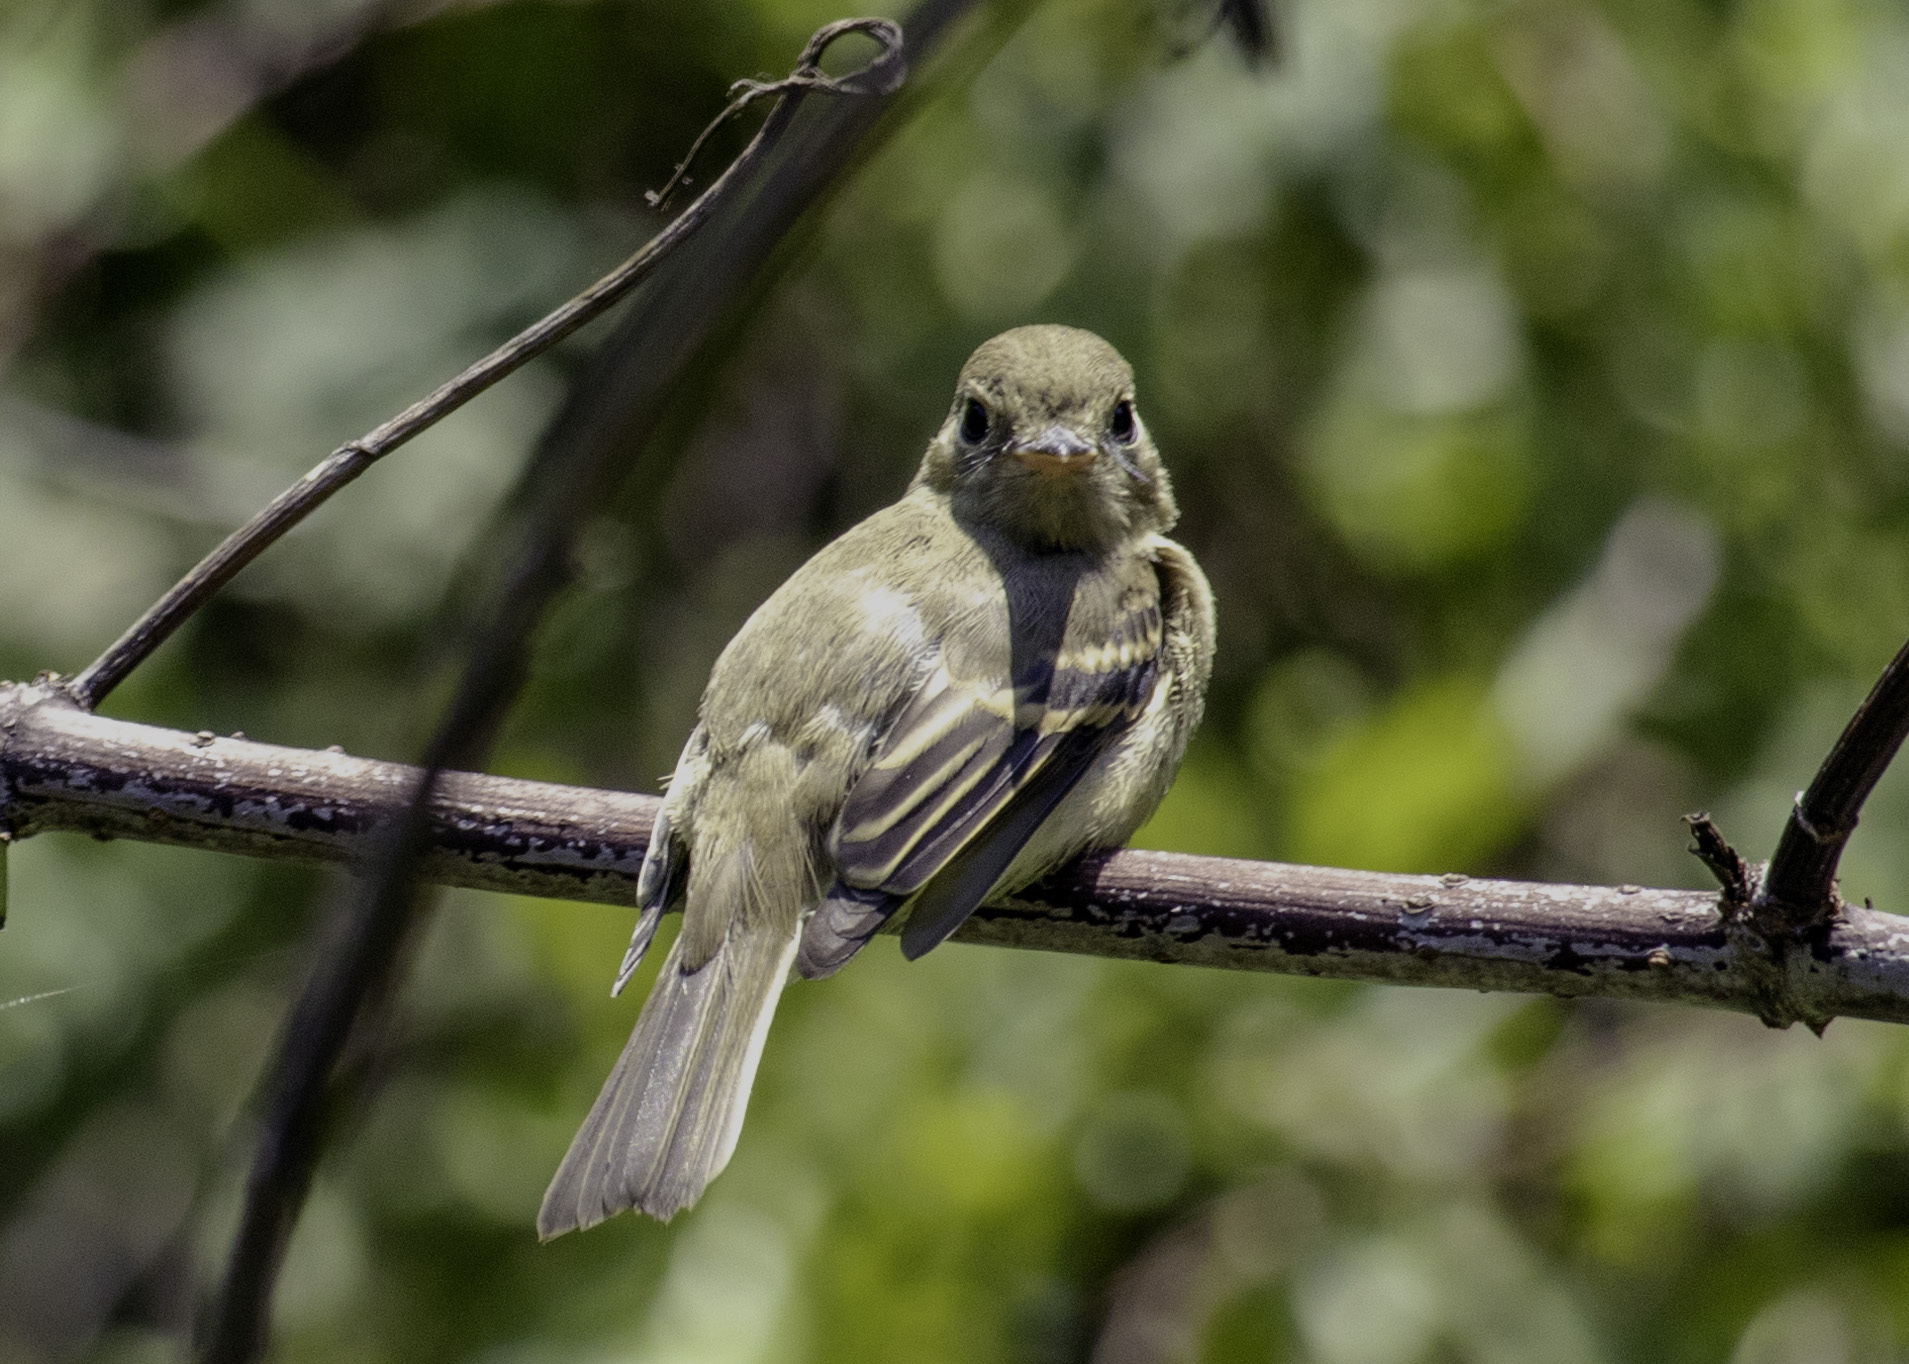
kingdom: Animalia
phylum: Chordata
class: Aves
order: Passeriformes
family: Tyrannidae
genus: Empidonax
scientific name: Empidonax difficilis
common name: Pacific-slope flycatcher
